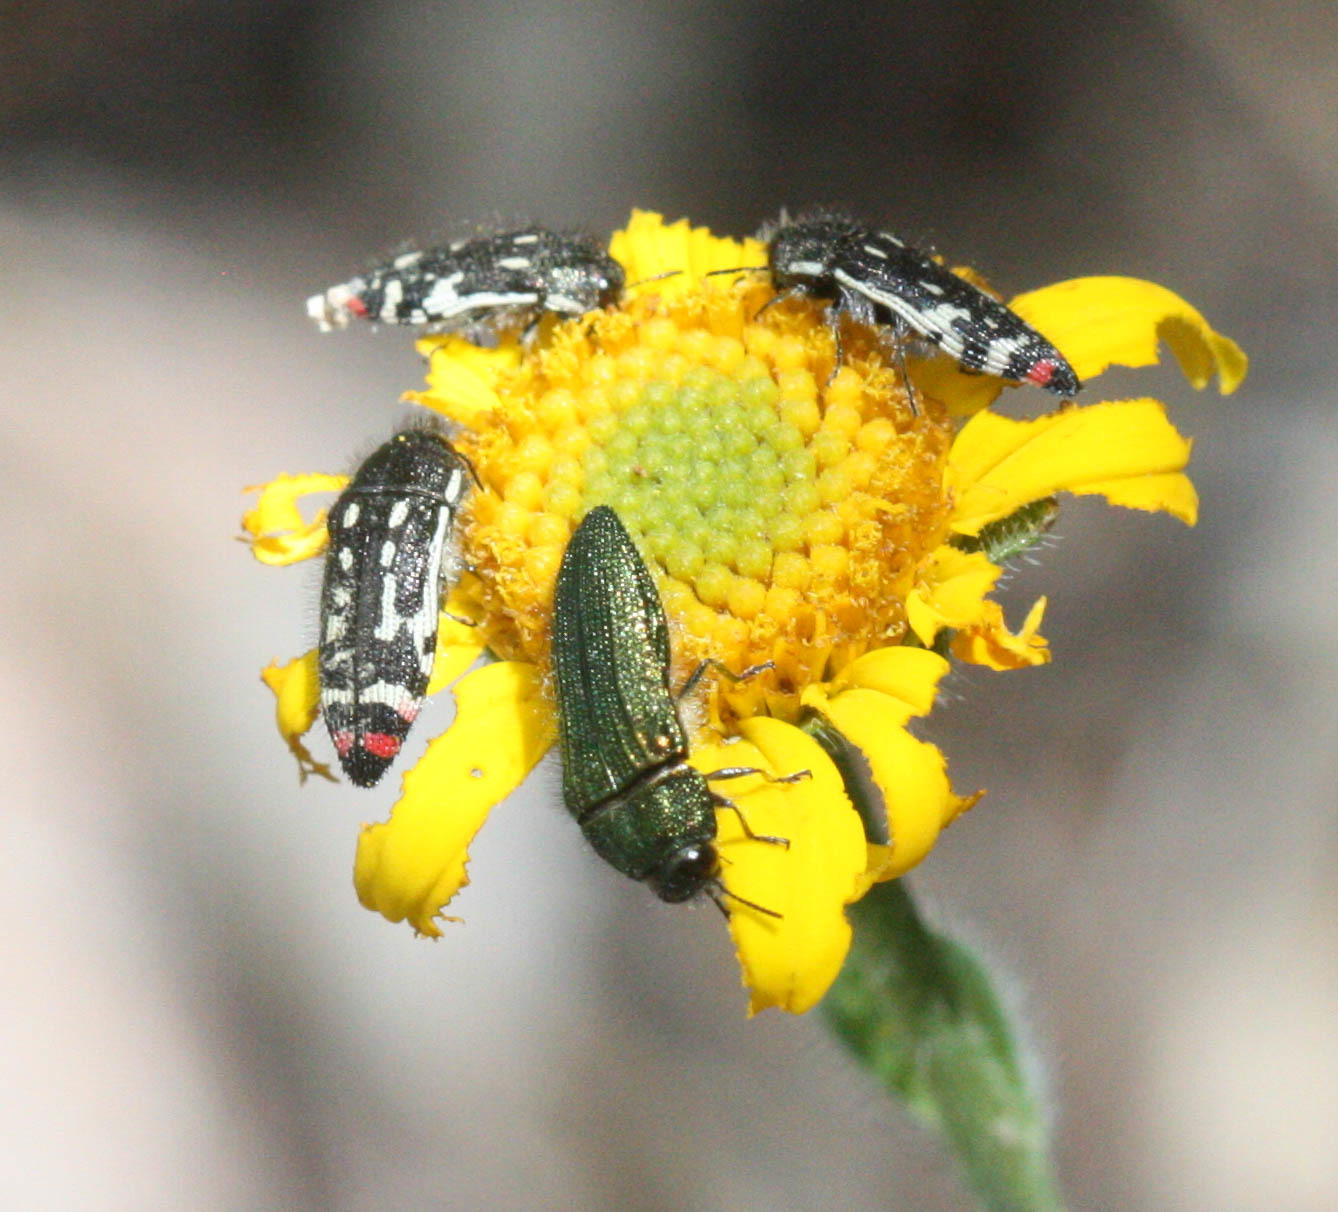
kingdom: Animalia
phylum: Arthropoda
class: Insecta
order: Coleoptera
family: Buprestidae
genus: Acmaeodera
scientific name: Acmaeodera amabilis
